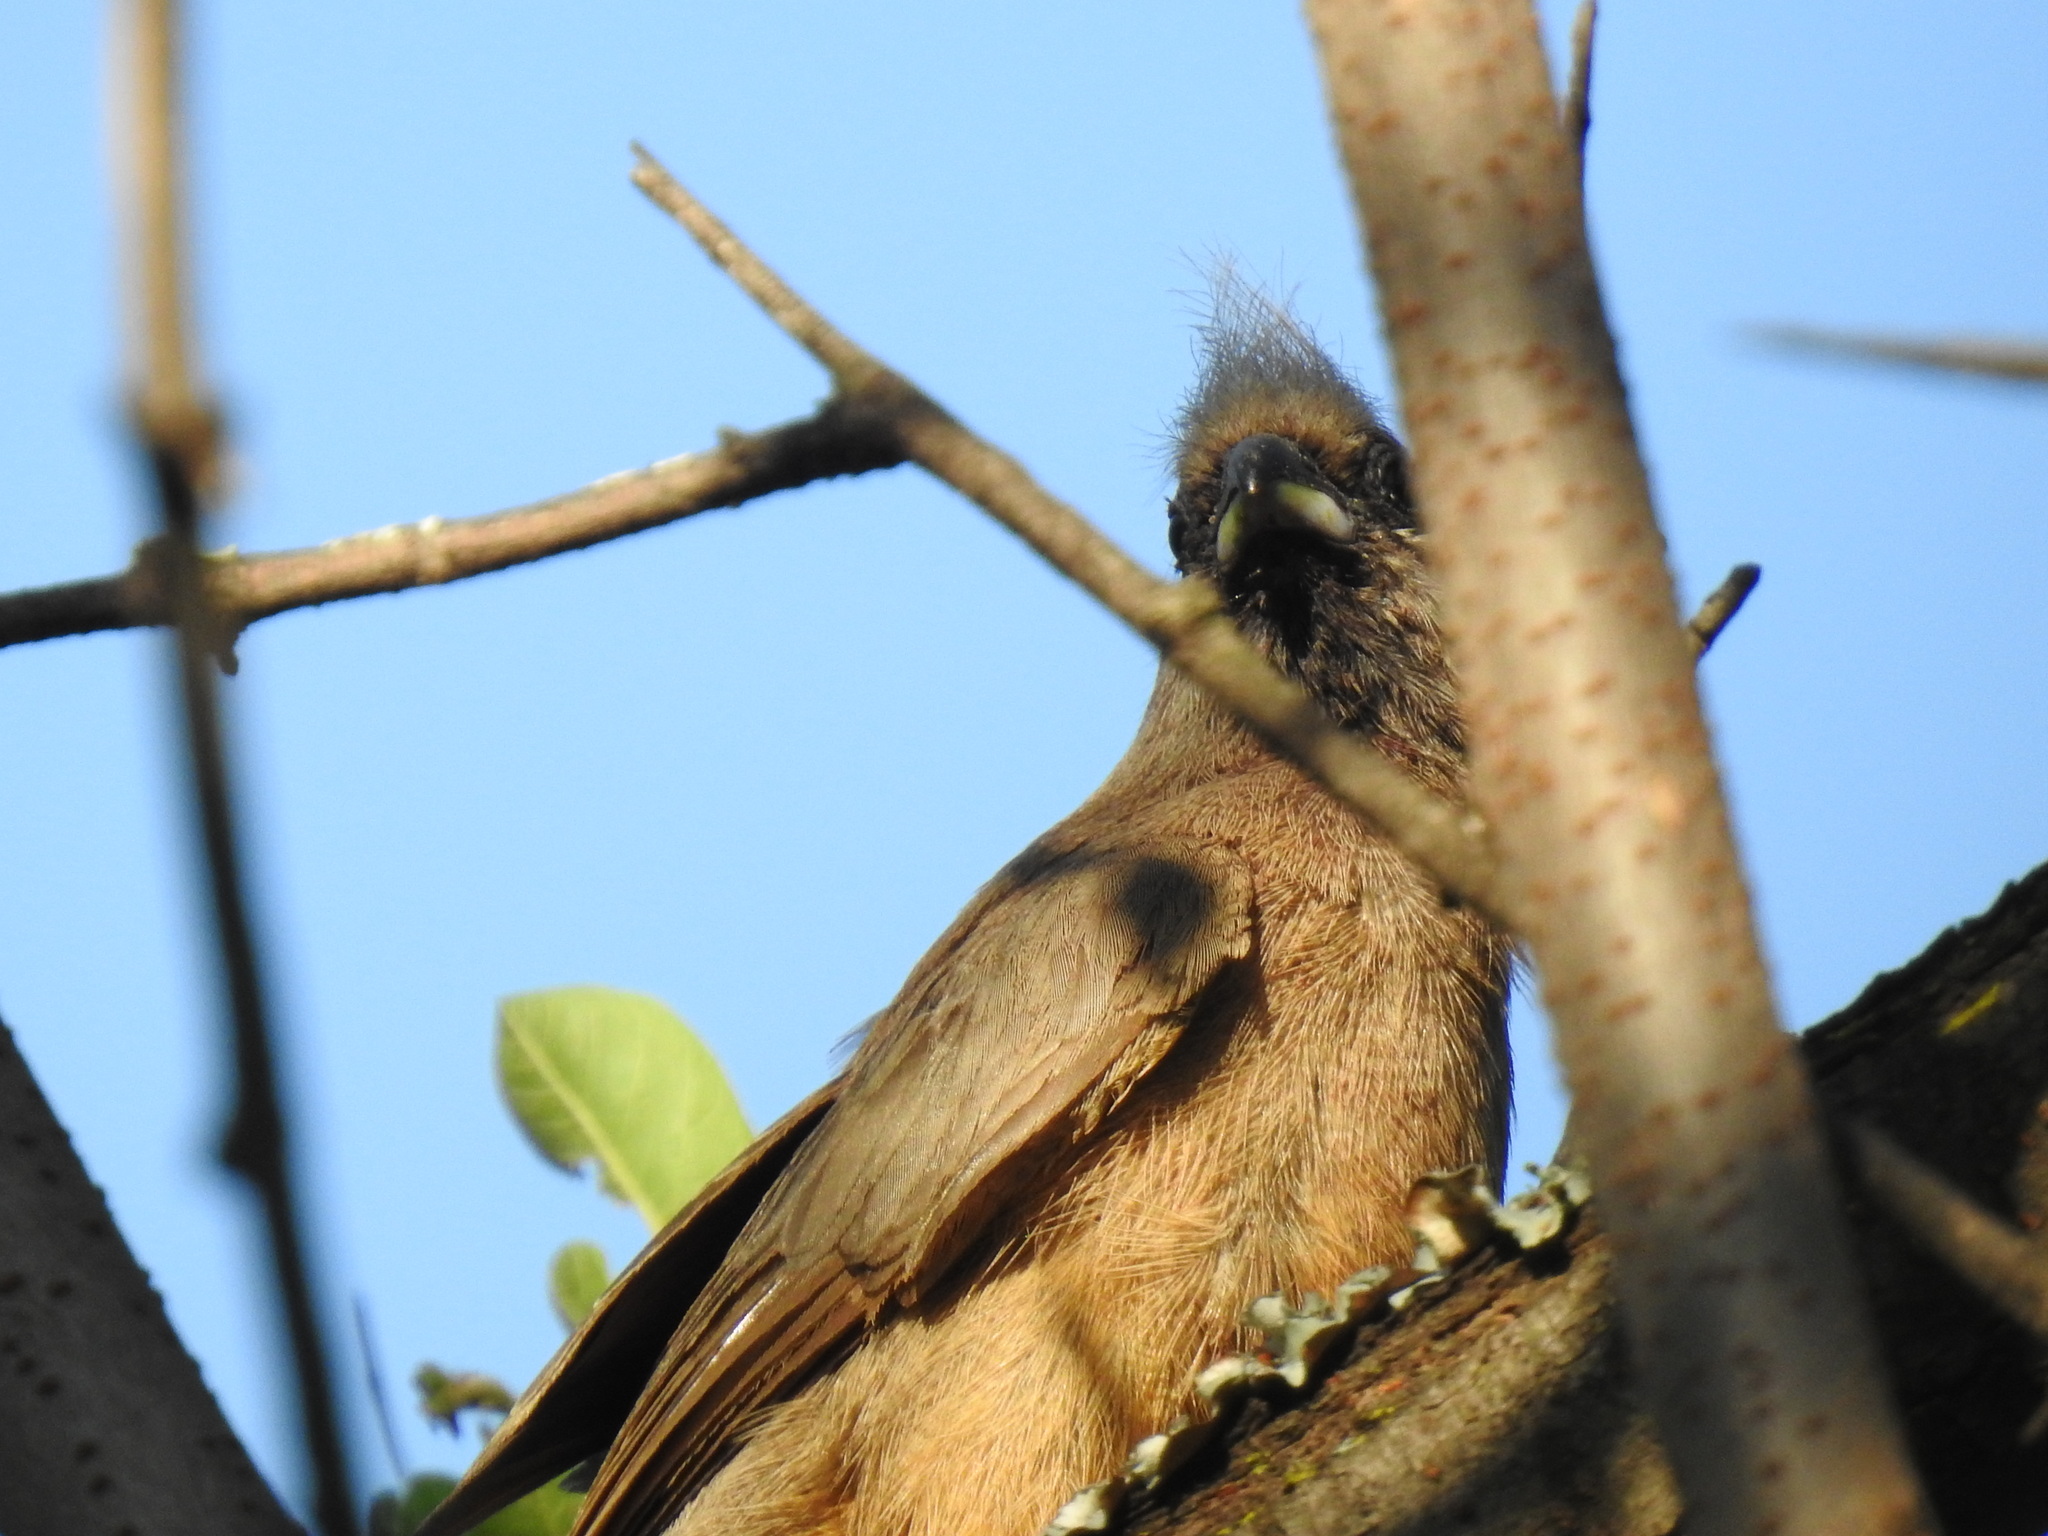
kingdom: Animalia
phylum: Chordata
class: Aves
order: Coliiformes
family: Coliidae
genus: Colius
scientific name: Colius striatus
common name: Speckled mousebird
